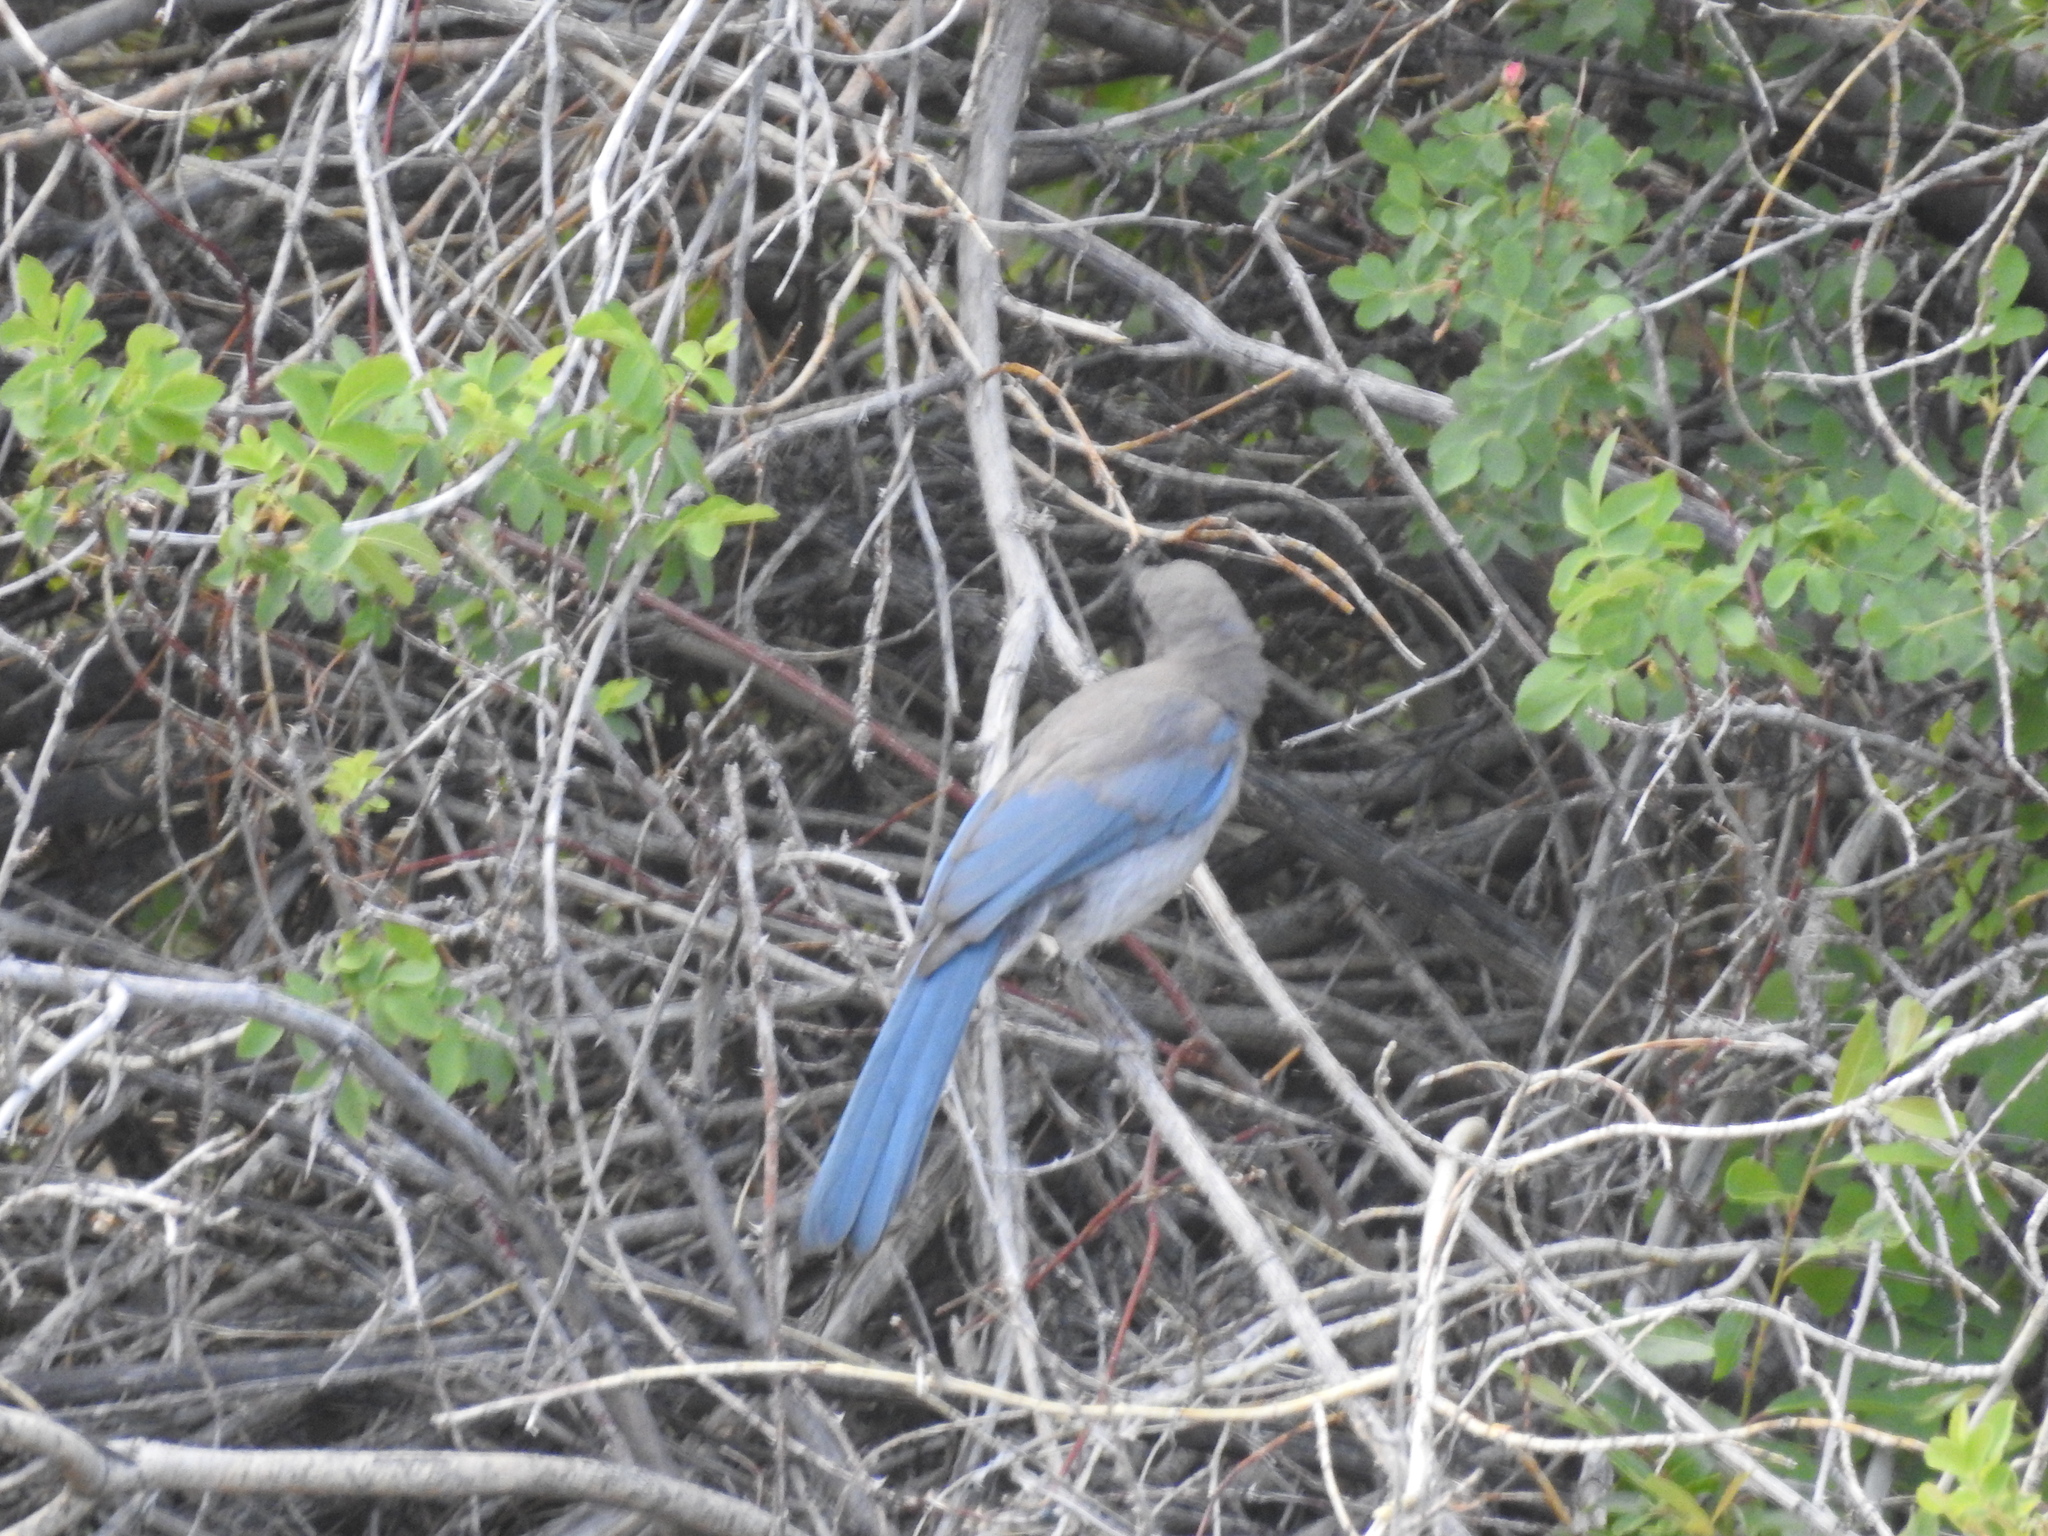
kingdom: Animalia
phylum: Chordata
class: Aves
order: Passeriformes
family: Corvidae
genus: Aphelocoma
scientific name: Aphelocoma woodhouseii
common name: Woodhouse's scrub-jay
